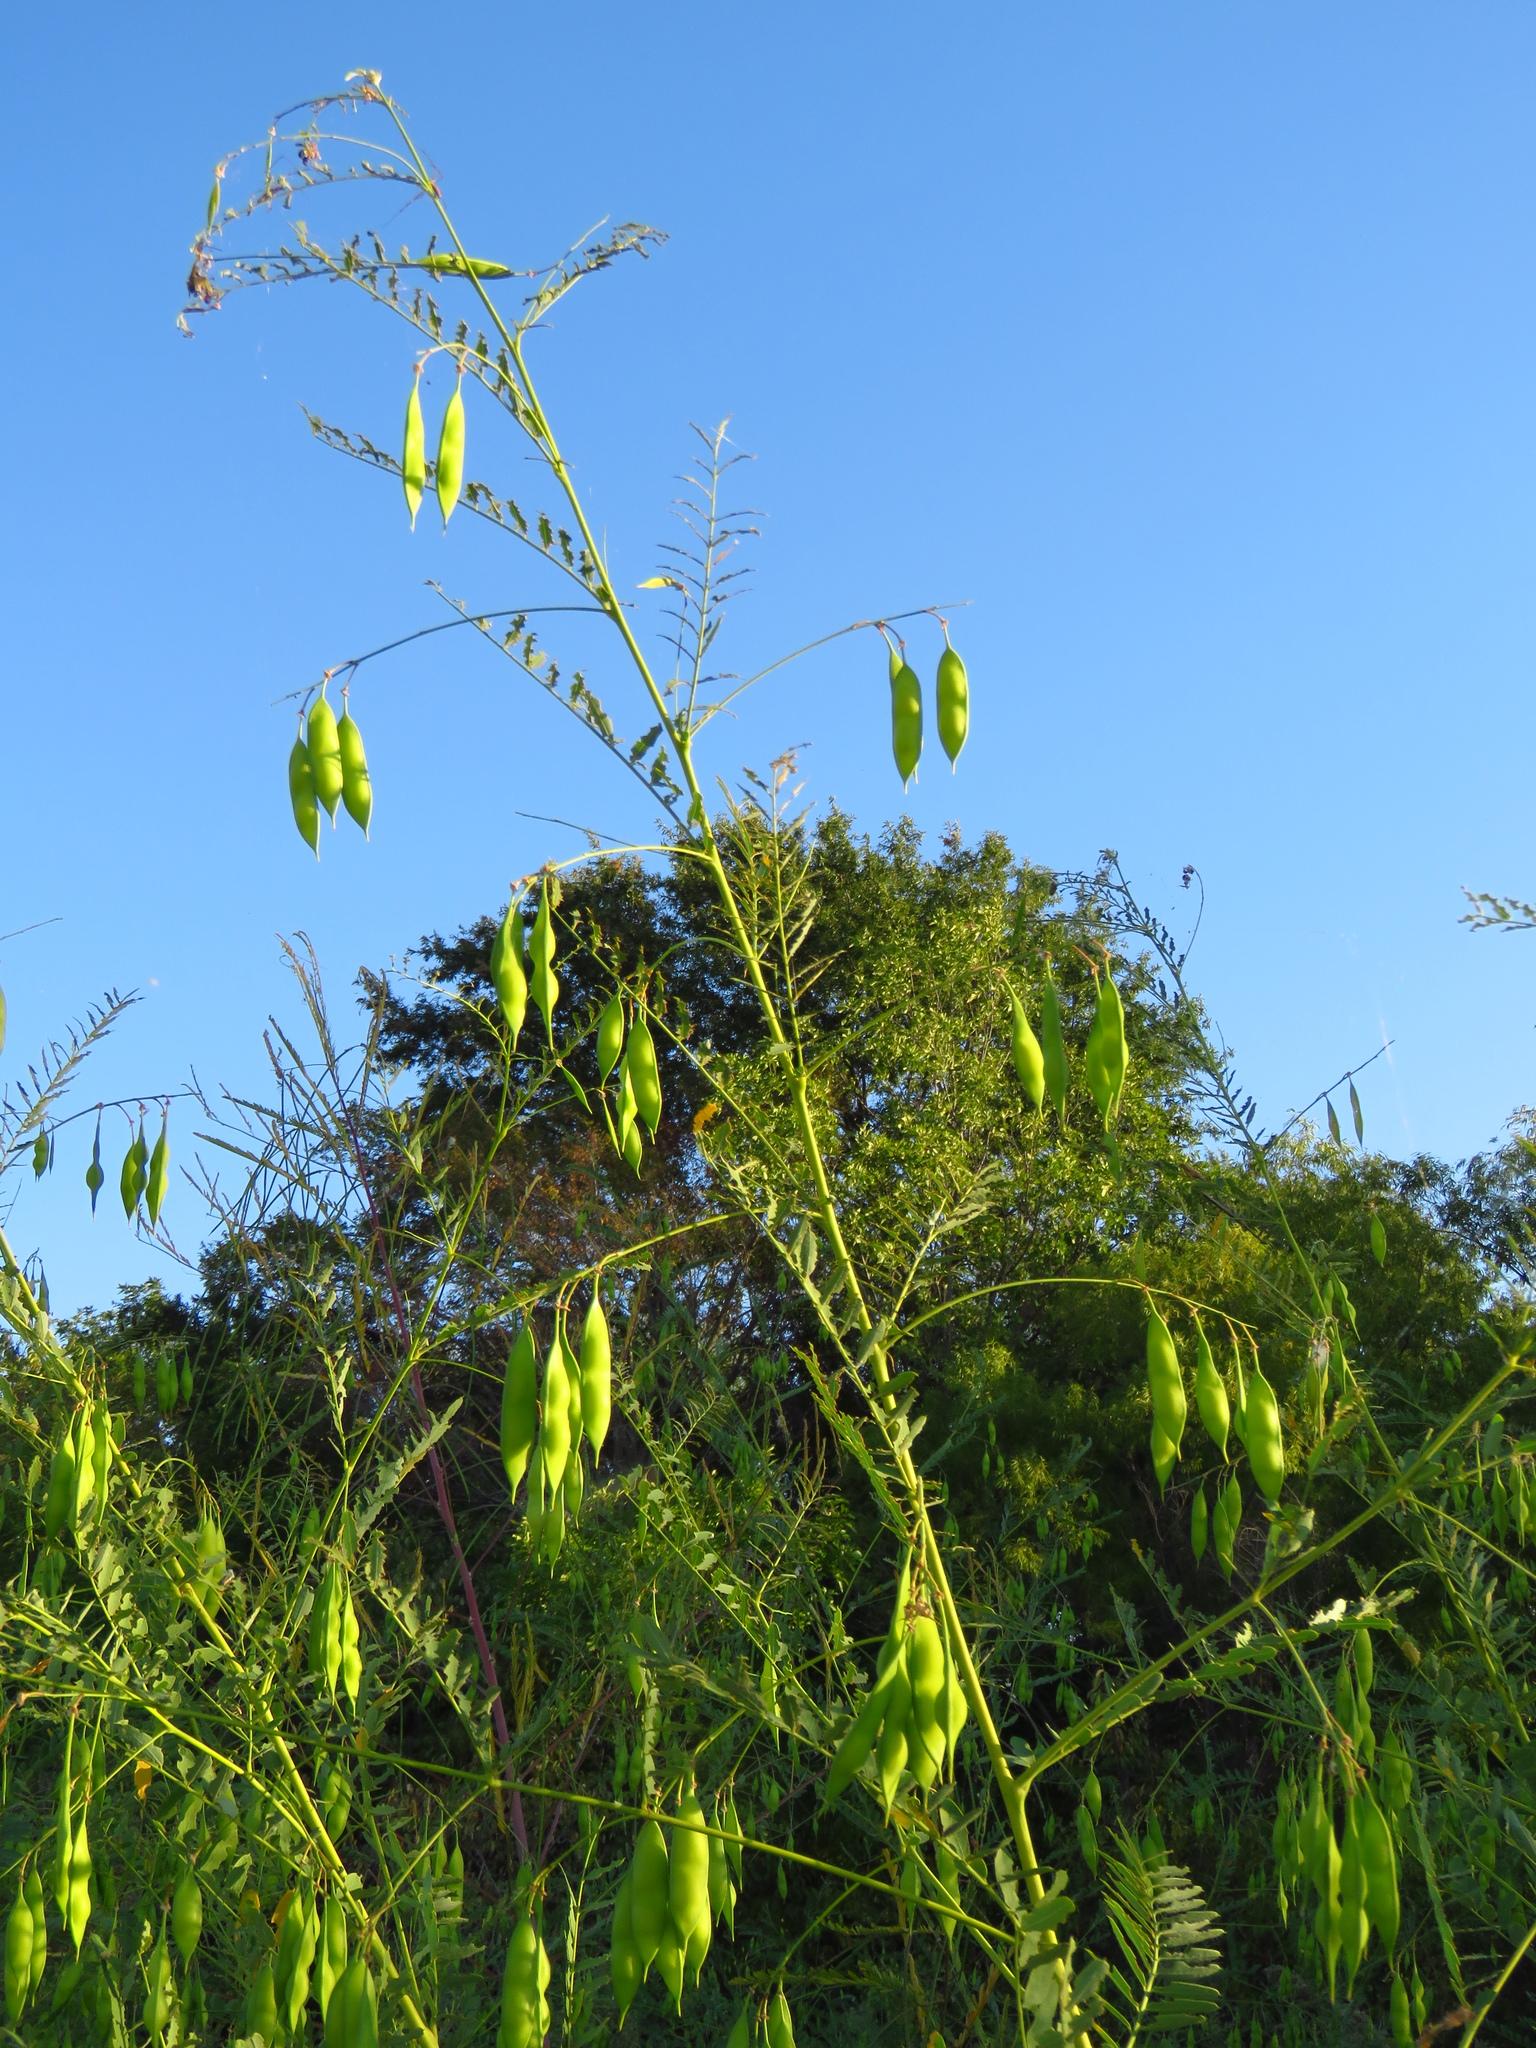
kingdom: Plantae
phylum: Tracheophyta
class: Magnoliopsida
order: Fabales
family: Fabaceae
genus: Sesbania
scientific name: Sesbania vesicaria
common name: Bagpod
